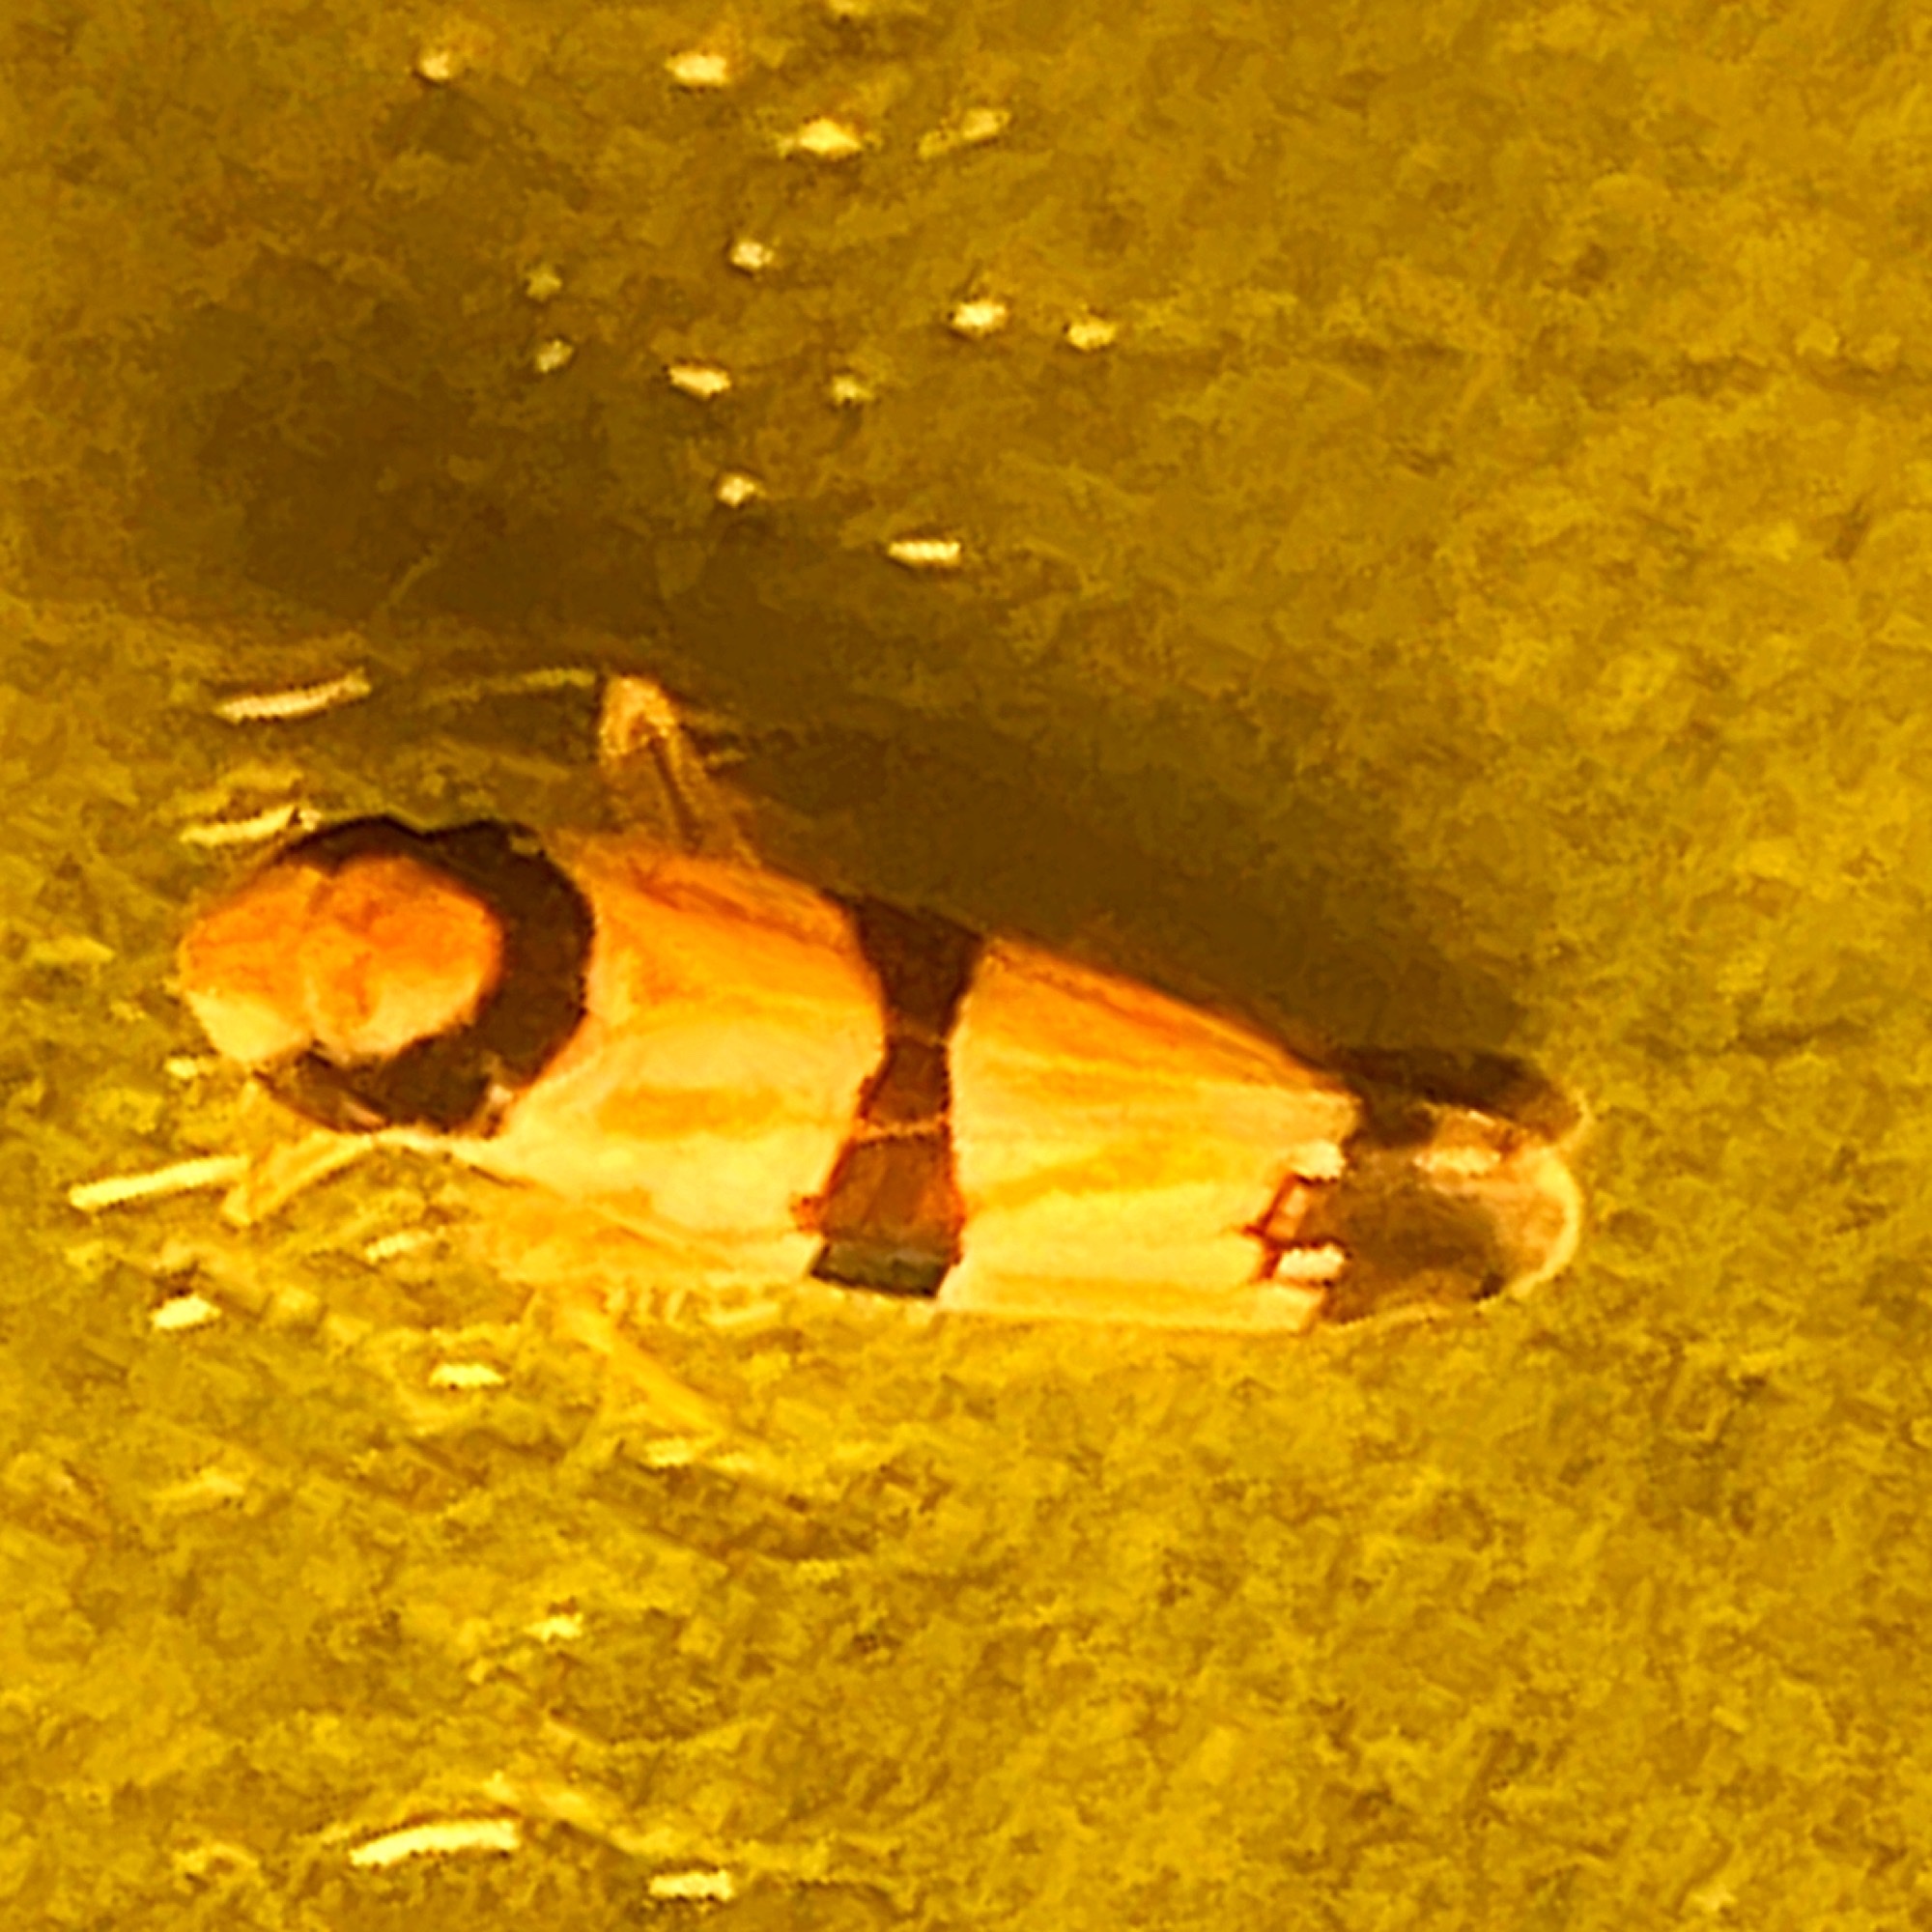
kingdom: Animalia
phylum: Arthropoda
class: Insecta
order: Hemiptera
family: Cicadellidae
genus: Erythroneura
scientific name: Erythroneura calycula
